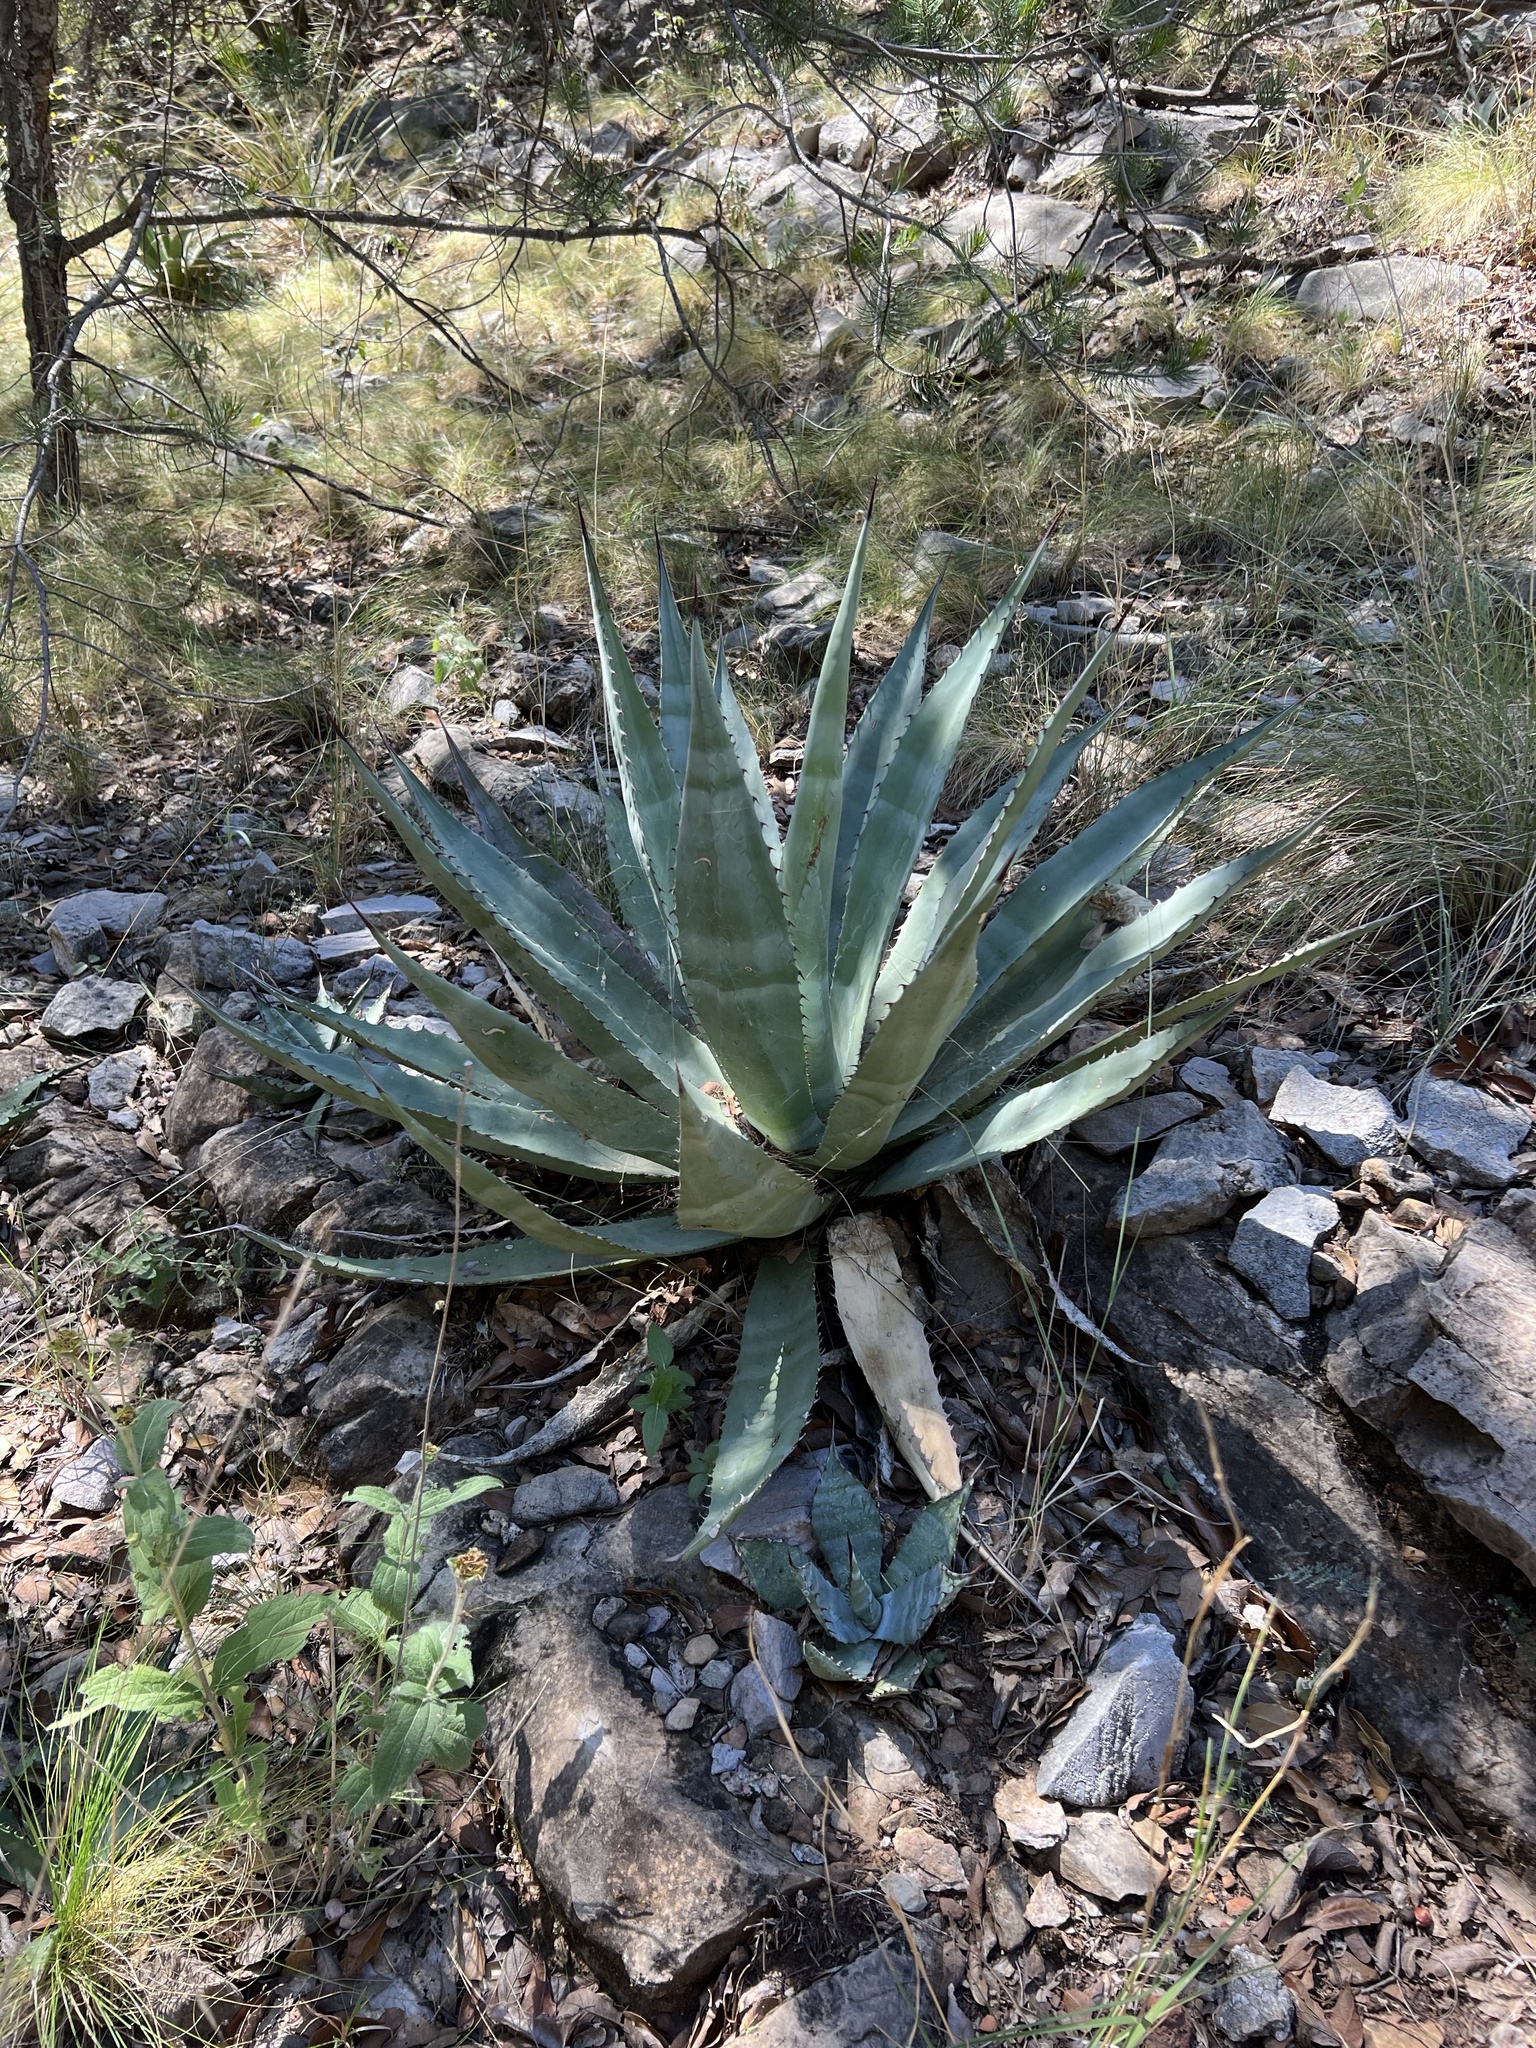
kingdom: Plantae
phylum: Tracheophyta
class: Liliopsida
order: Asparagales
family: Asparagaceae
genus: Agave
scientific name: Agave palmeri
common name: Palmer agave
